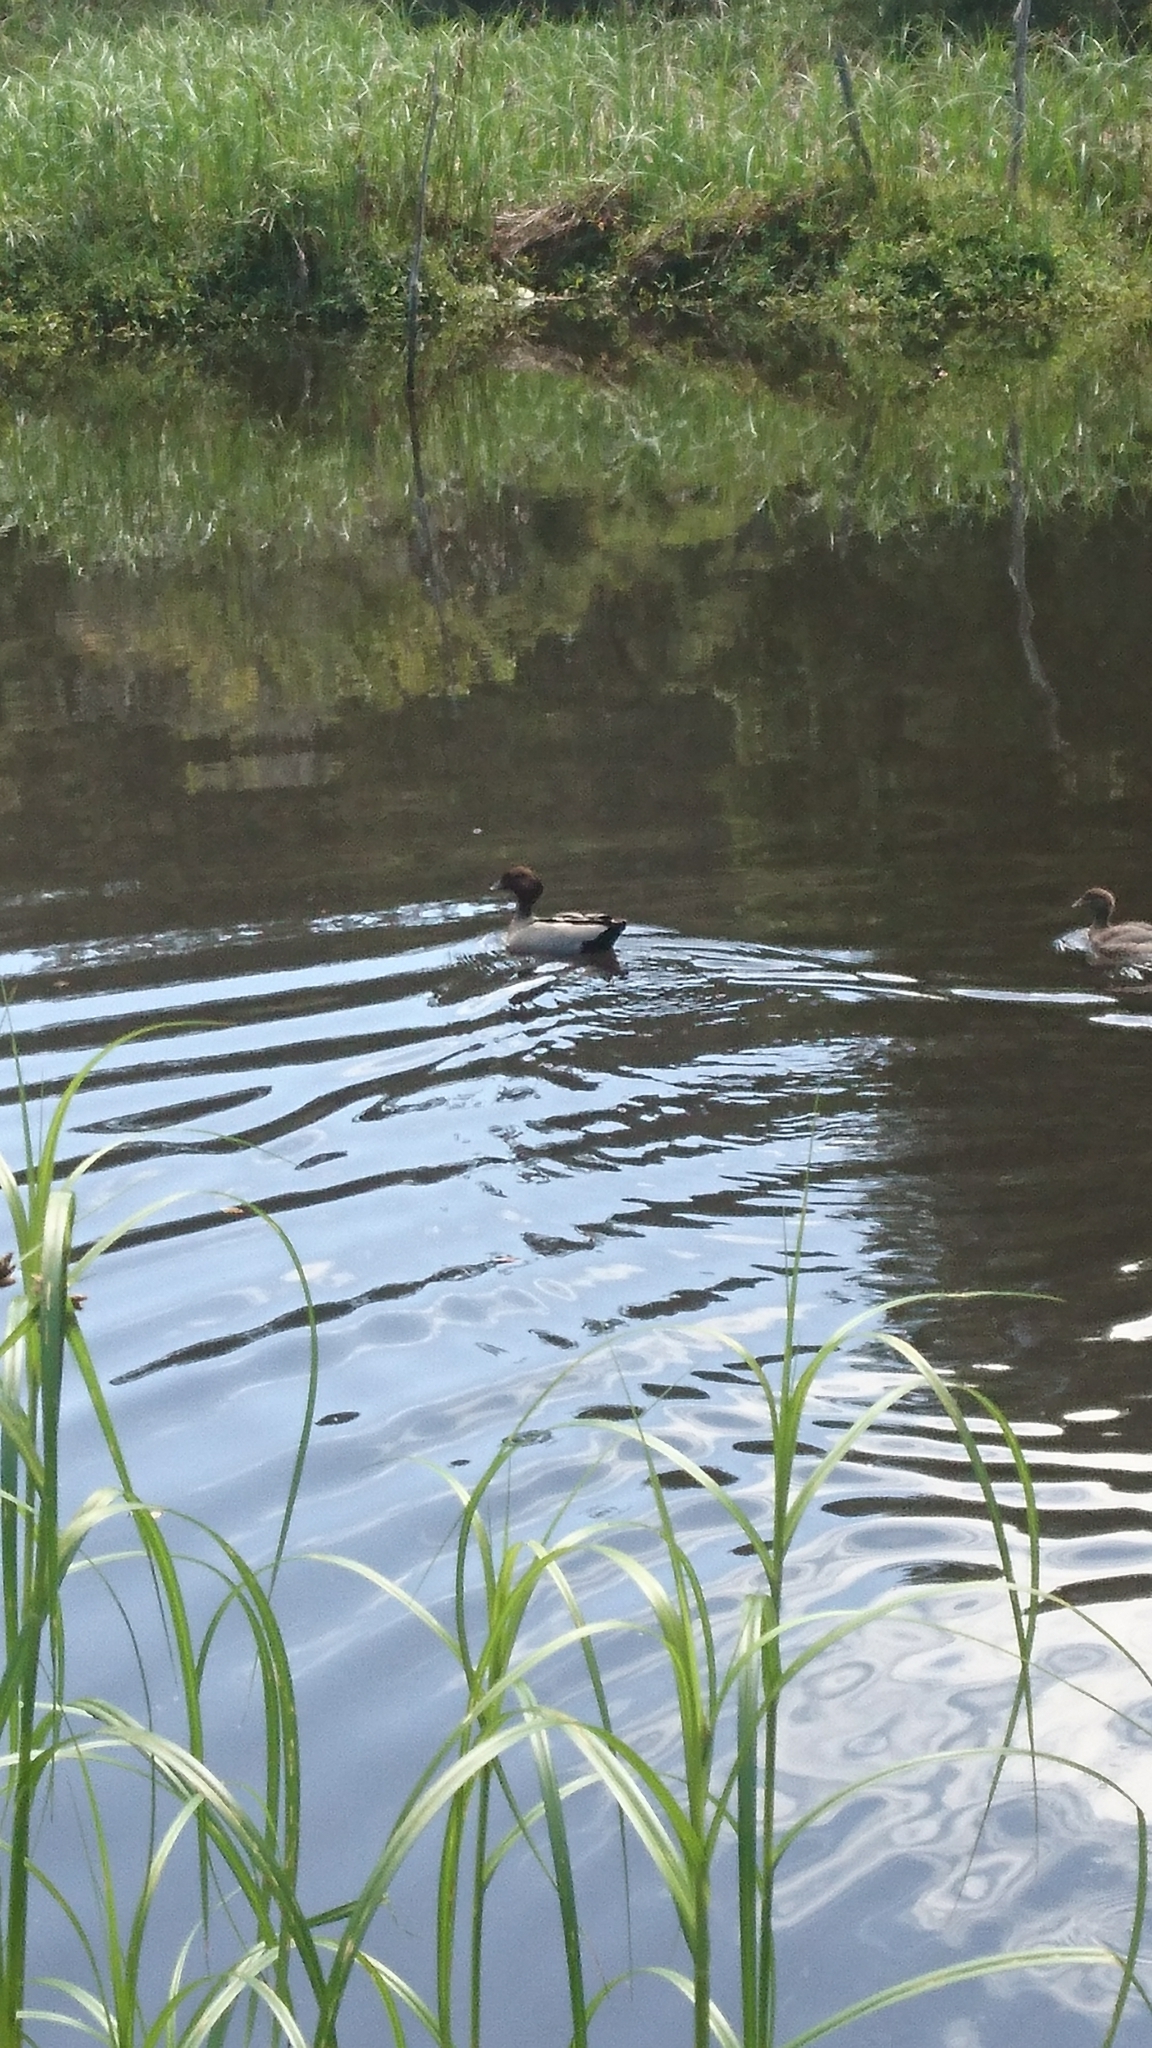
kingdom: Animalia
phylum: Chordata
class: Aves
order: Anseriformes
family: Anatidae
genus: Chenonetta
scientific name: Chenonetta jubata
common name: Maned duck
